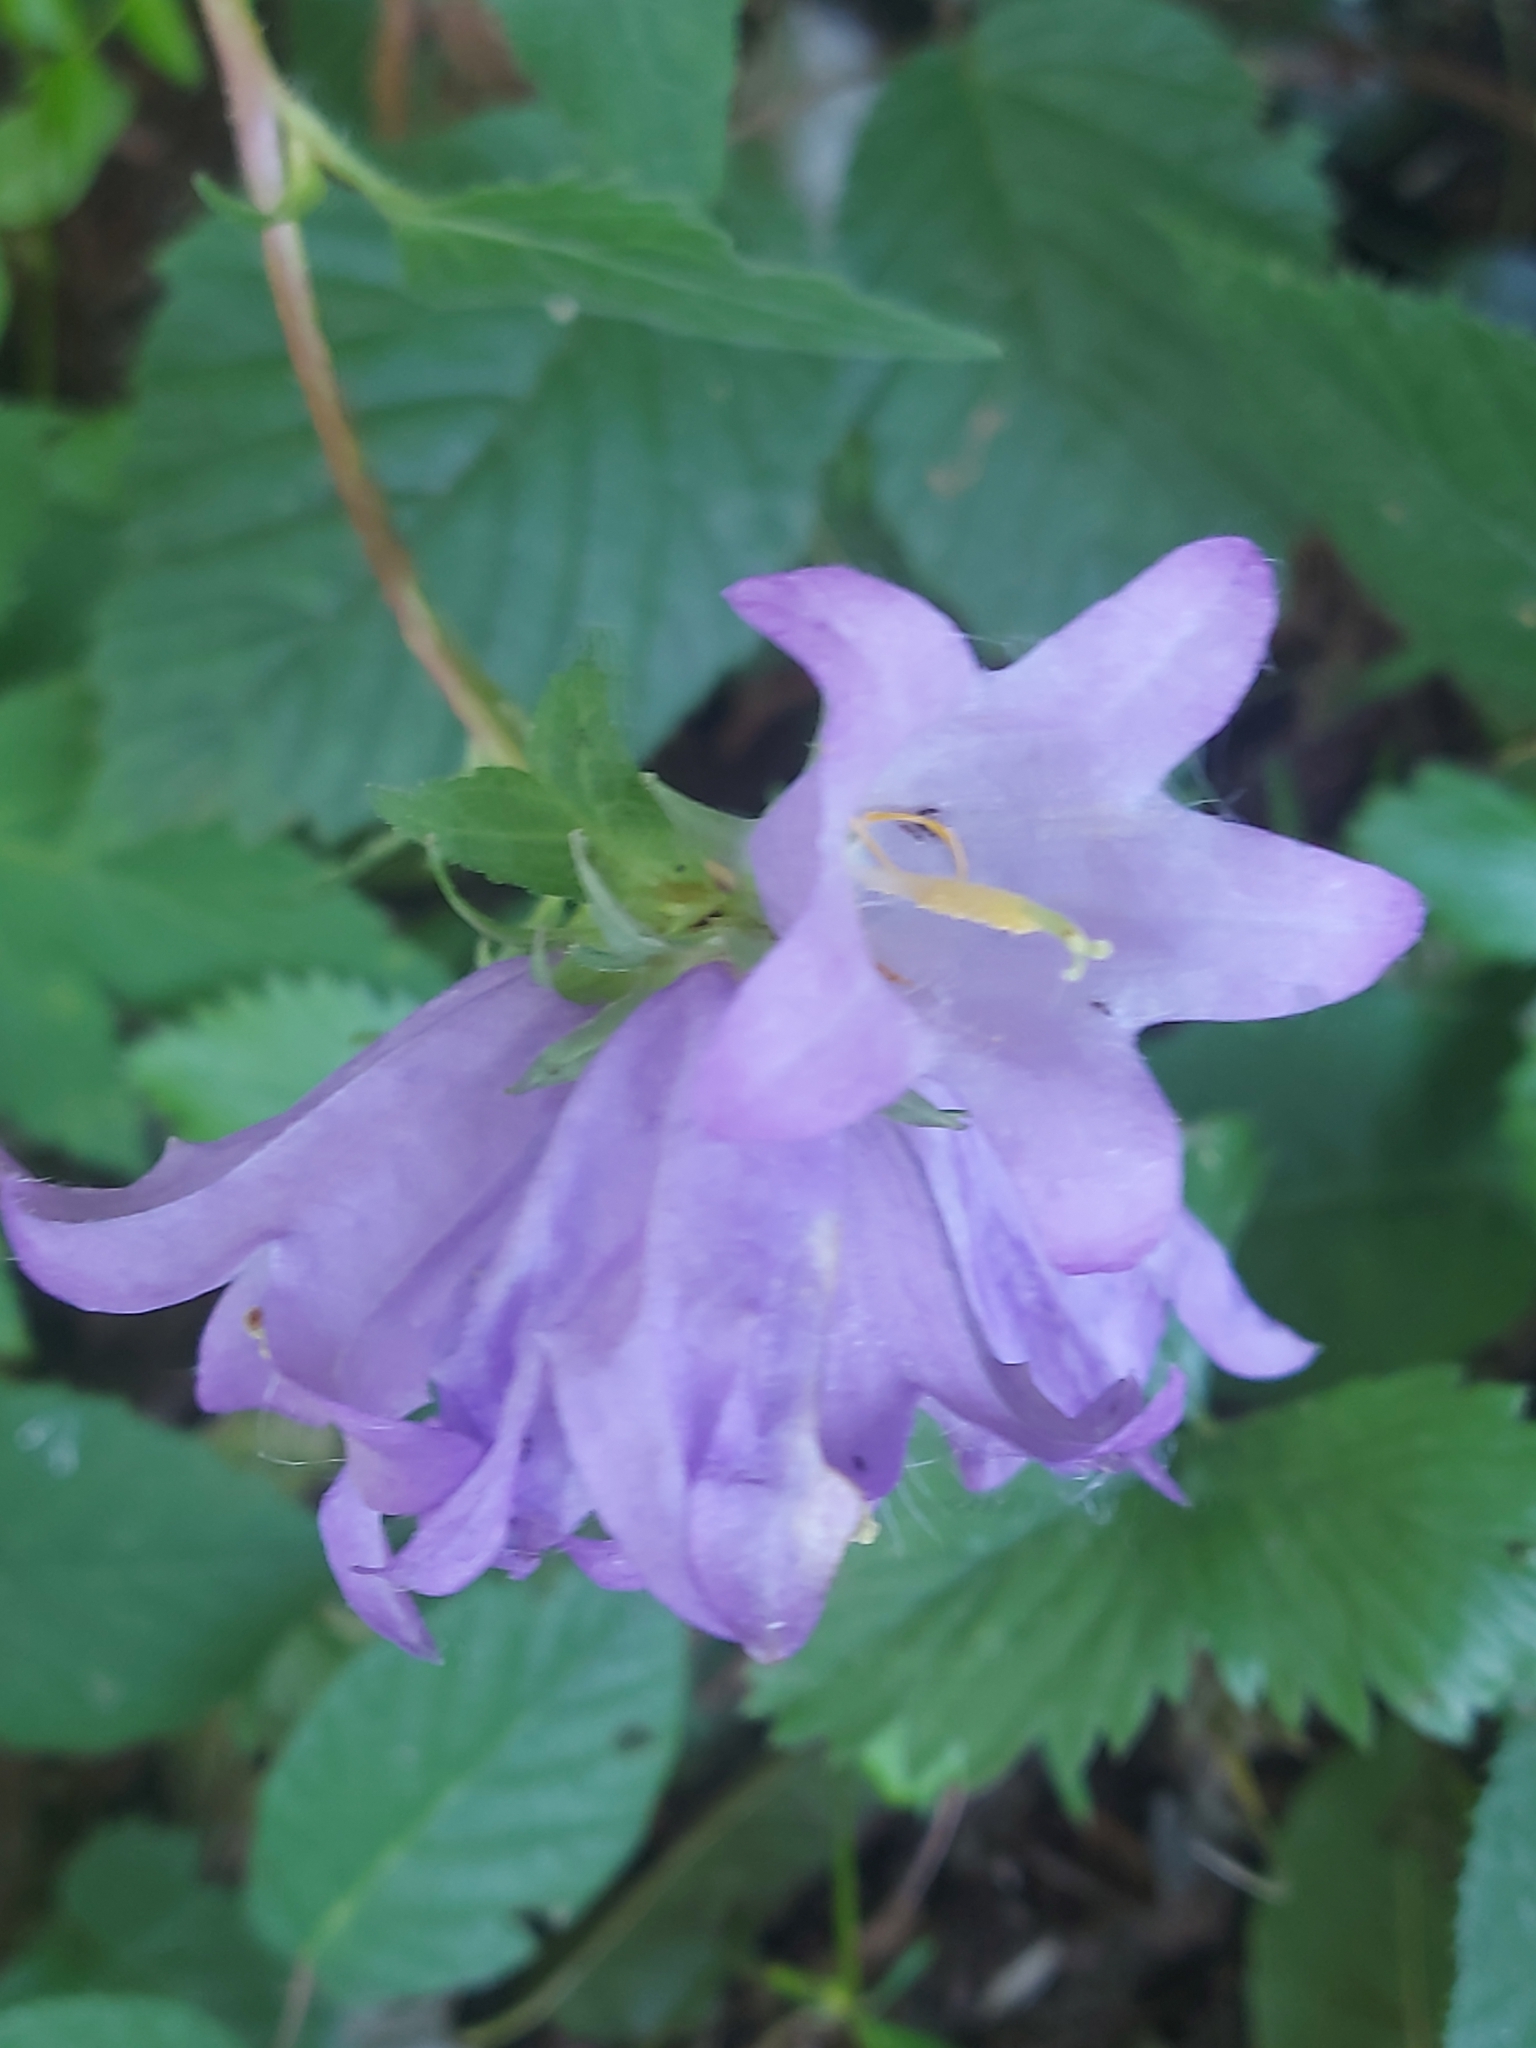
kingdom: Plantae
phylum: Tracheophyta
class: Magnoliopsida
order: Asterales
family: Campanulaceae
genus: Campanula
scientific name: Campanula trachelium
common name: Nettle-leaved bellflower
